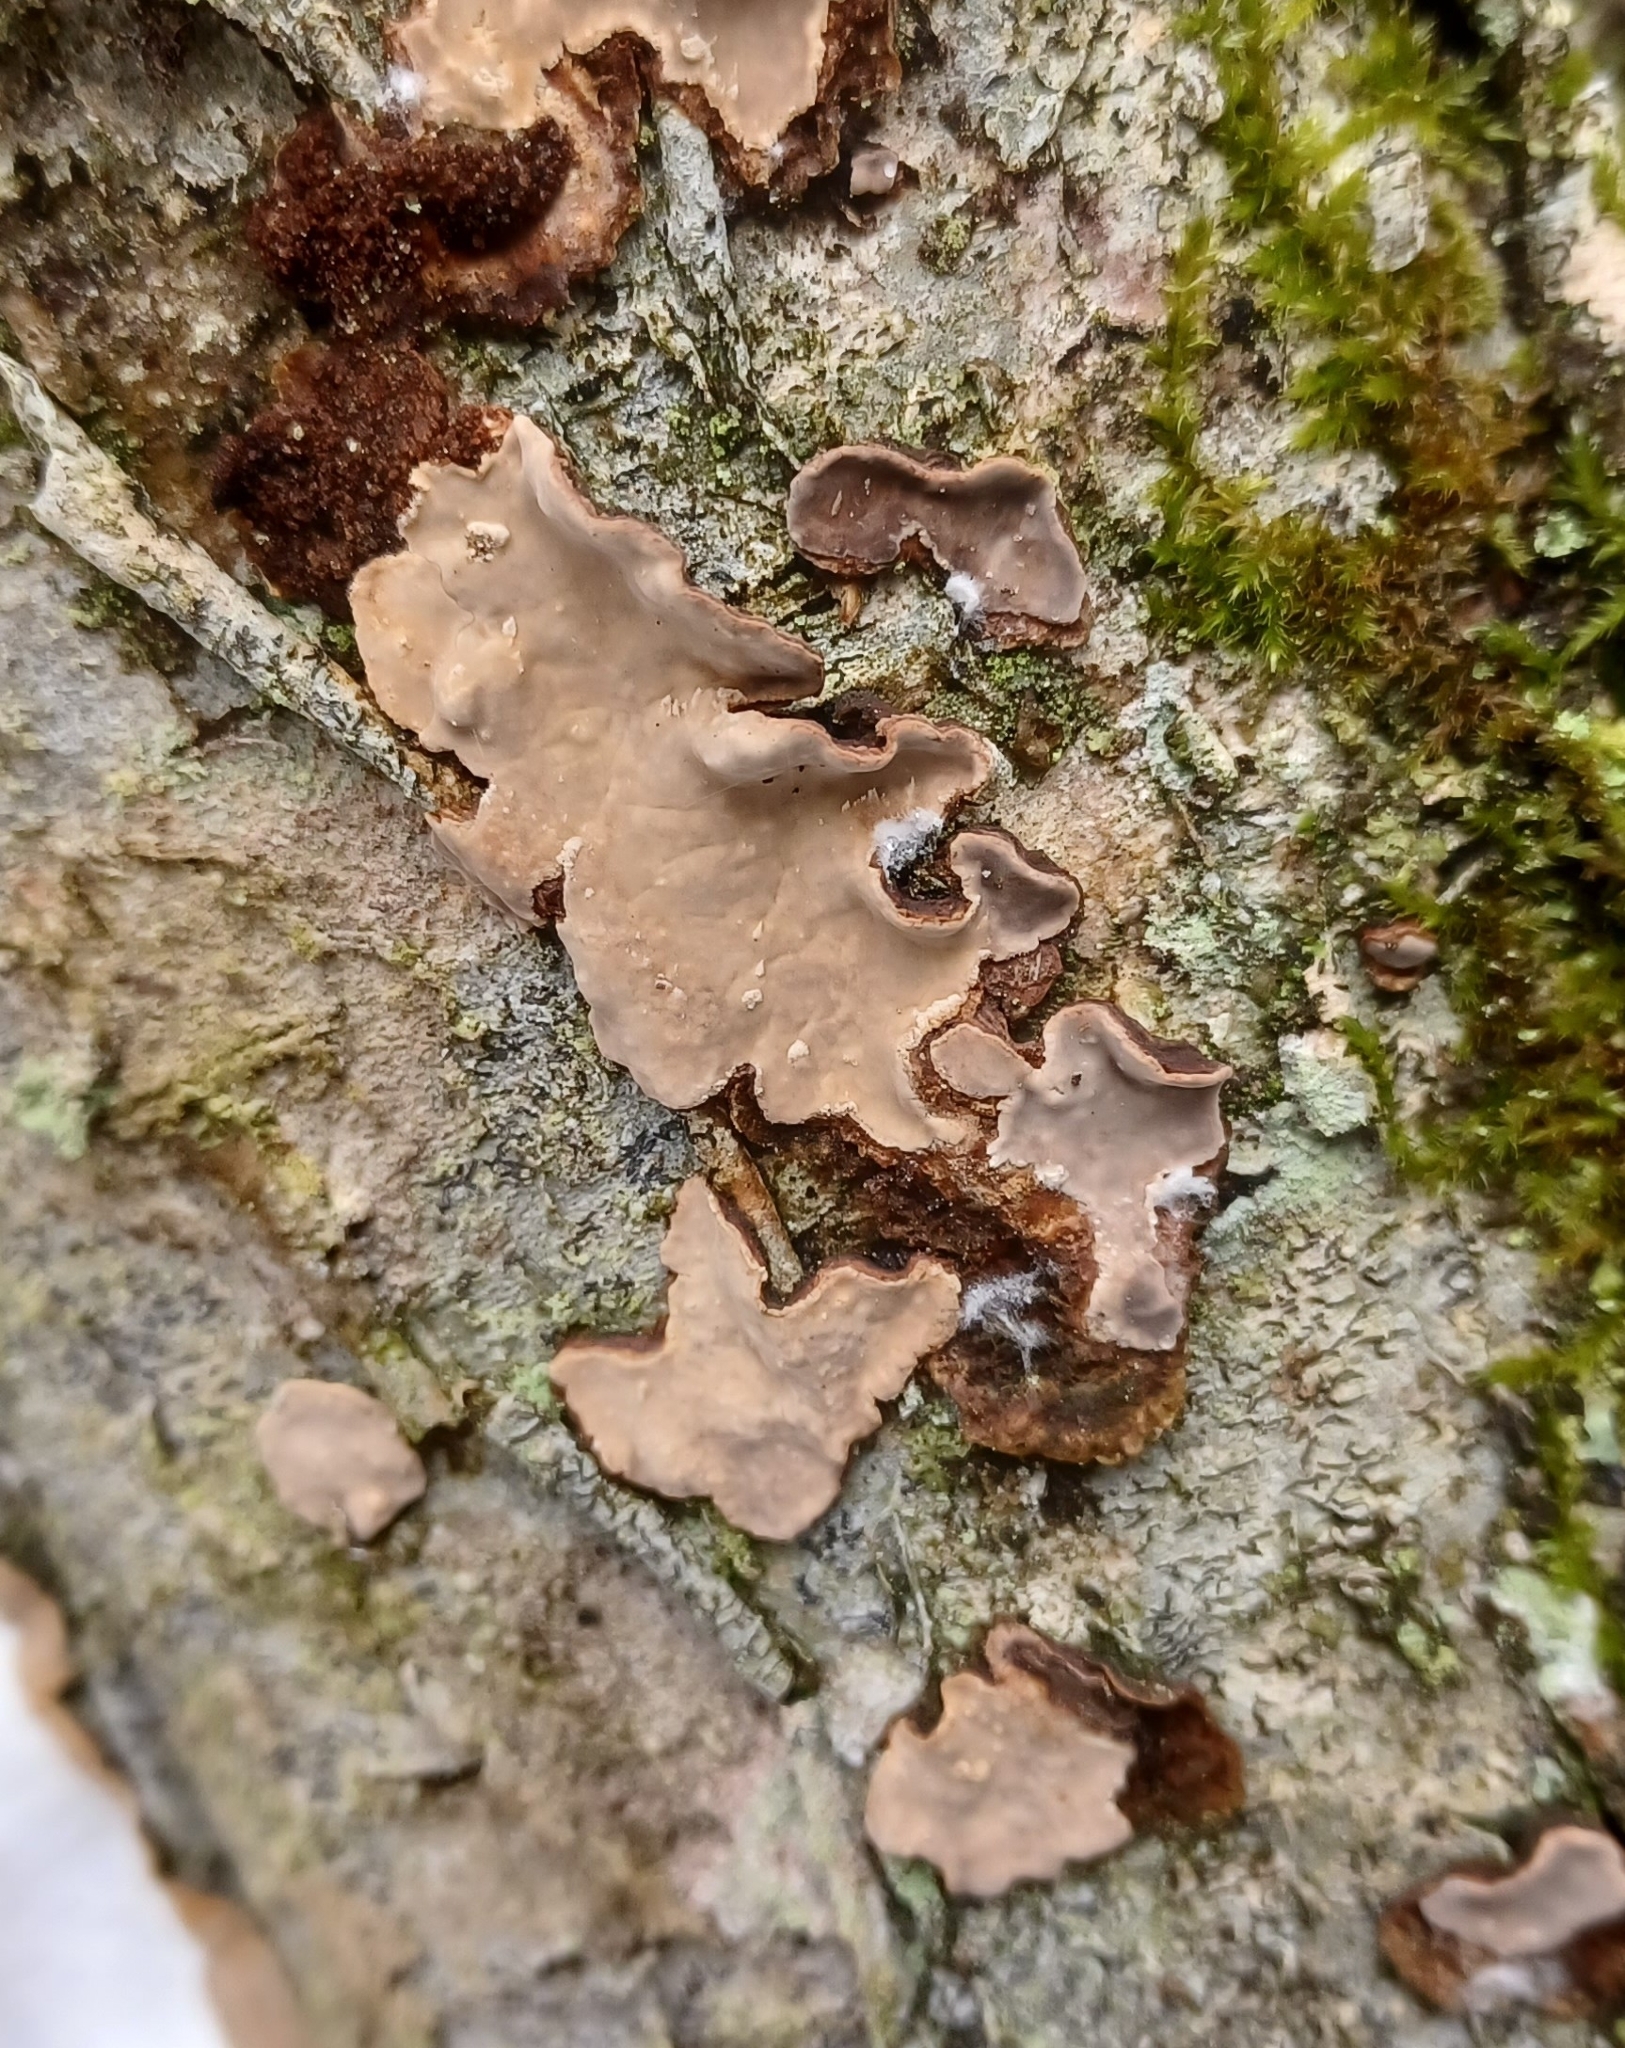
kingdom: Fungi
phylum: Basidiomycota
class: Agaricomycetes
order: Russulales
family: Stereaceae
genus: Stereum
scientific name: Stereum rugosum
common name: Bleeding broadleaf crust
